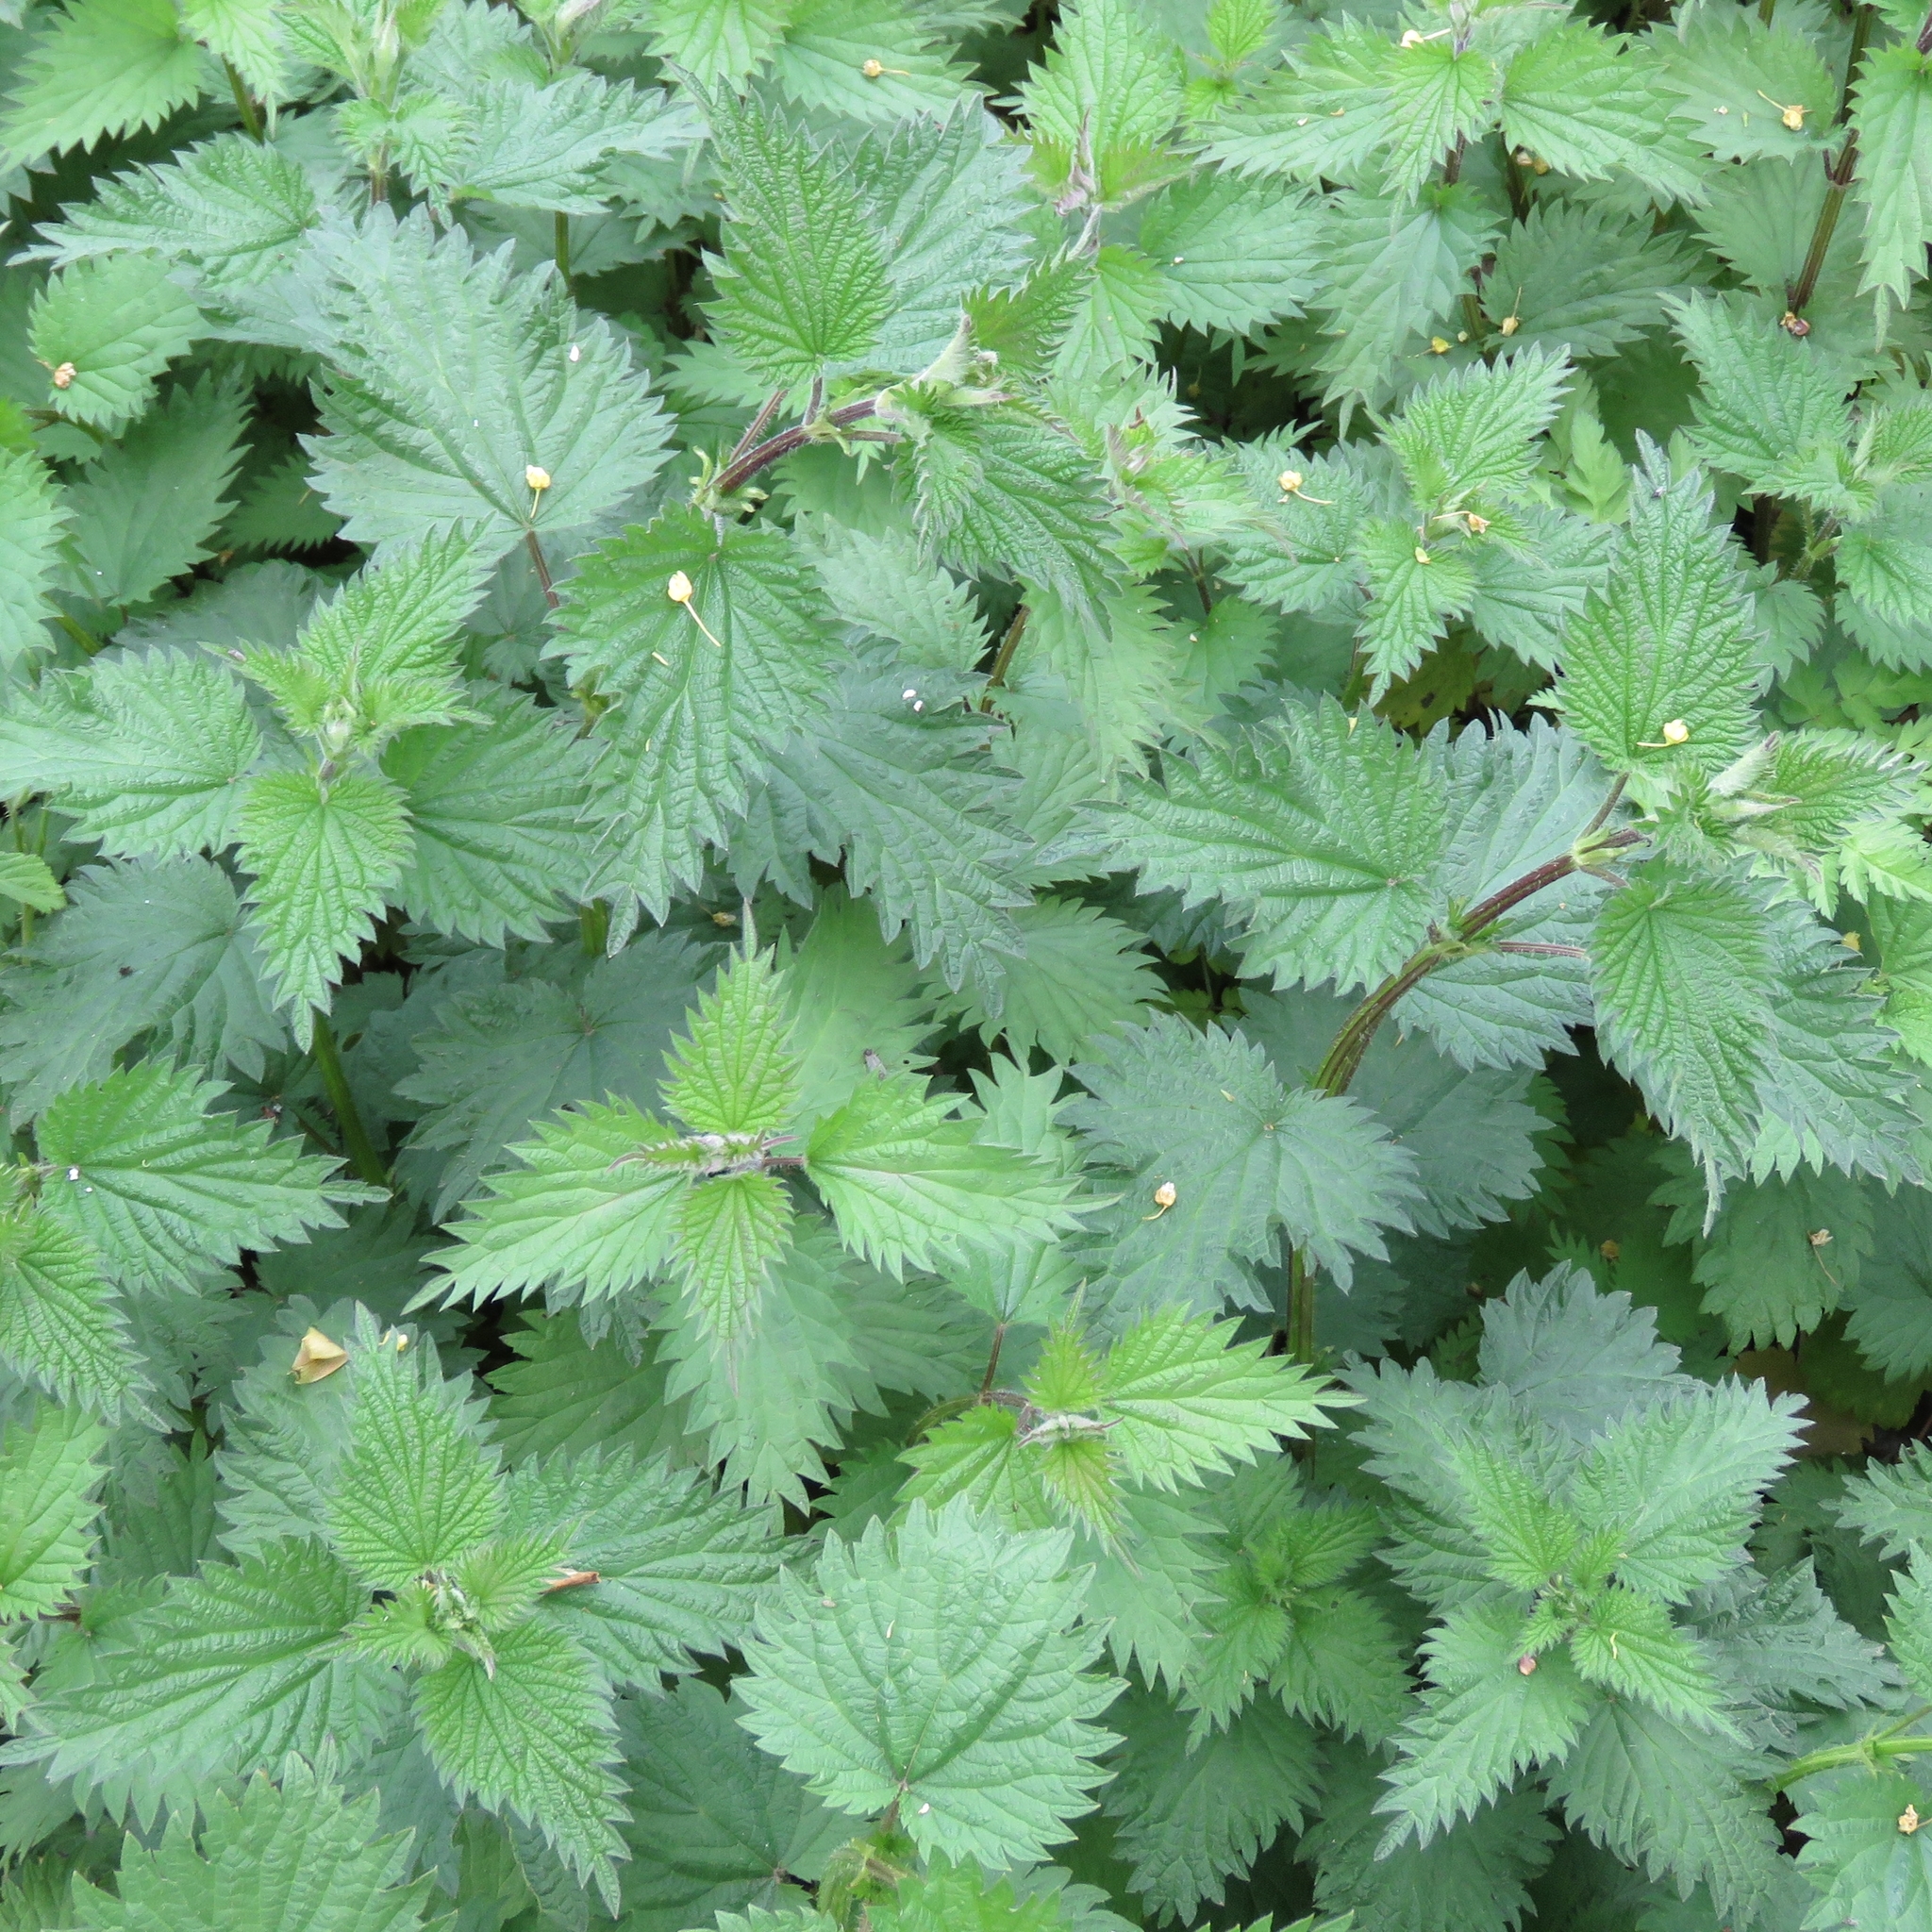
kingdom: Plantae
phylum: Tracheophyta
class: Magnoliopsida
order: Rosales
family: Urticaceae
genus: Urtica
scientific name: Urtica dioica
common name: Common nettle
